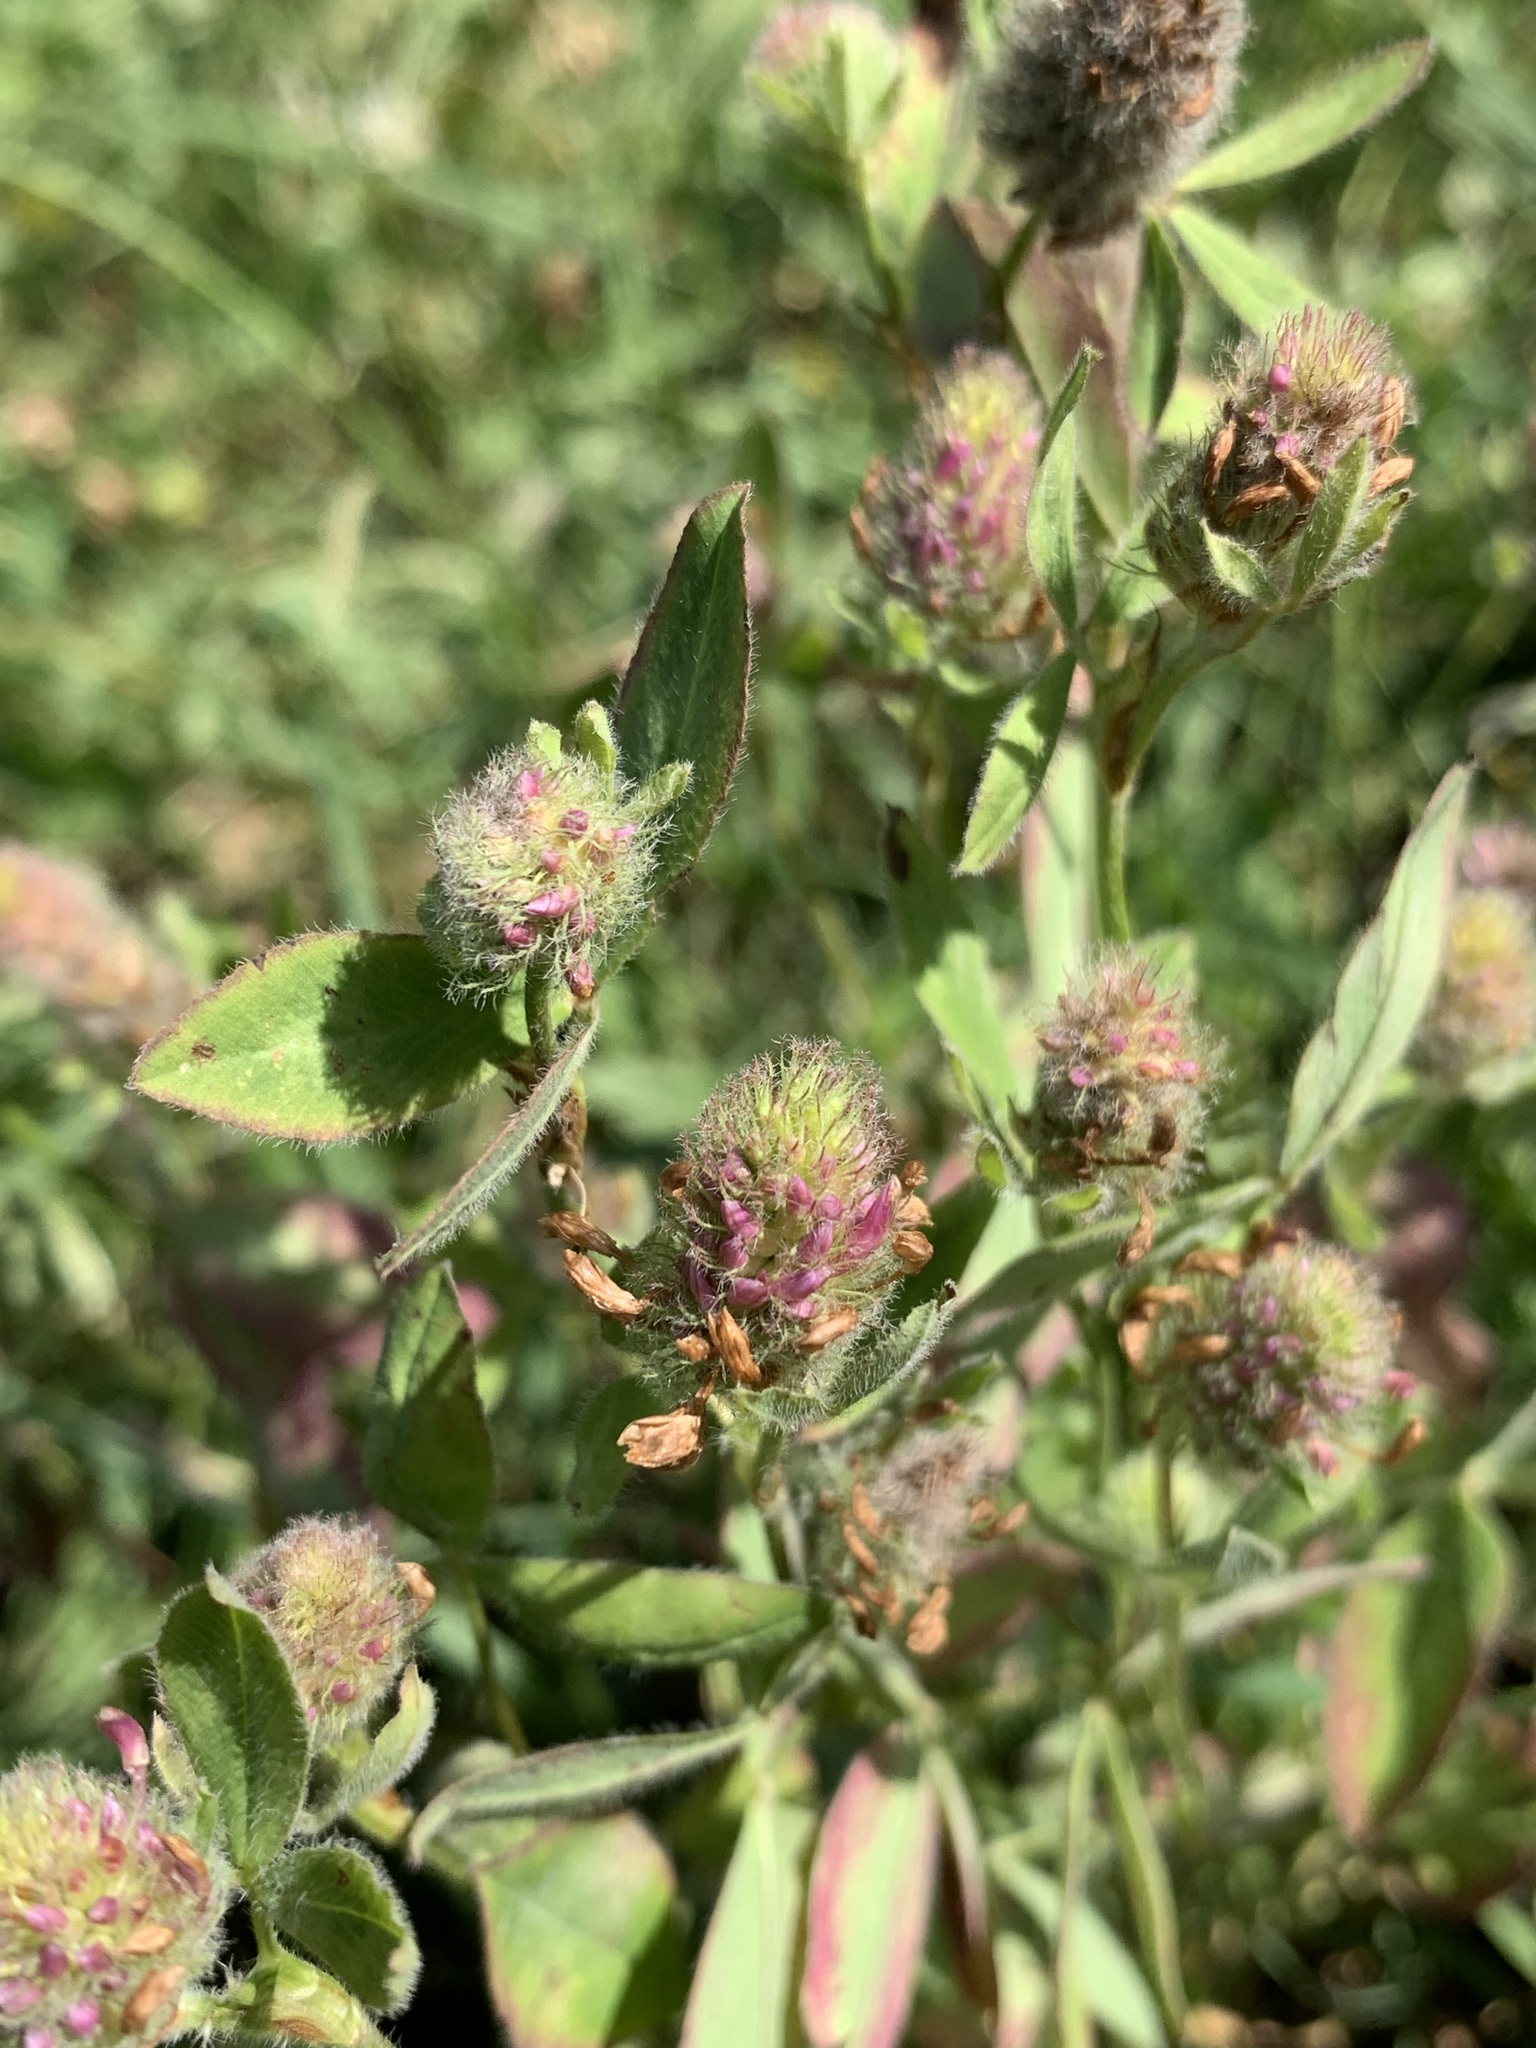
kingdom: Plantae
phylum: Tracheophyta
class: Magnoliopsida
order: Fabales
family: Fabaceae
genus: Trifolium
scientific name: Trifolium arvense
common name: Hare's-foot clover
